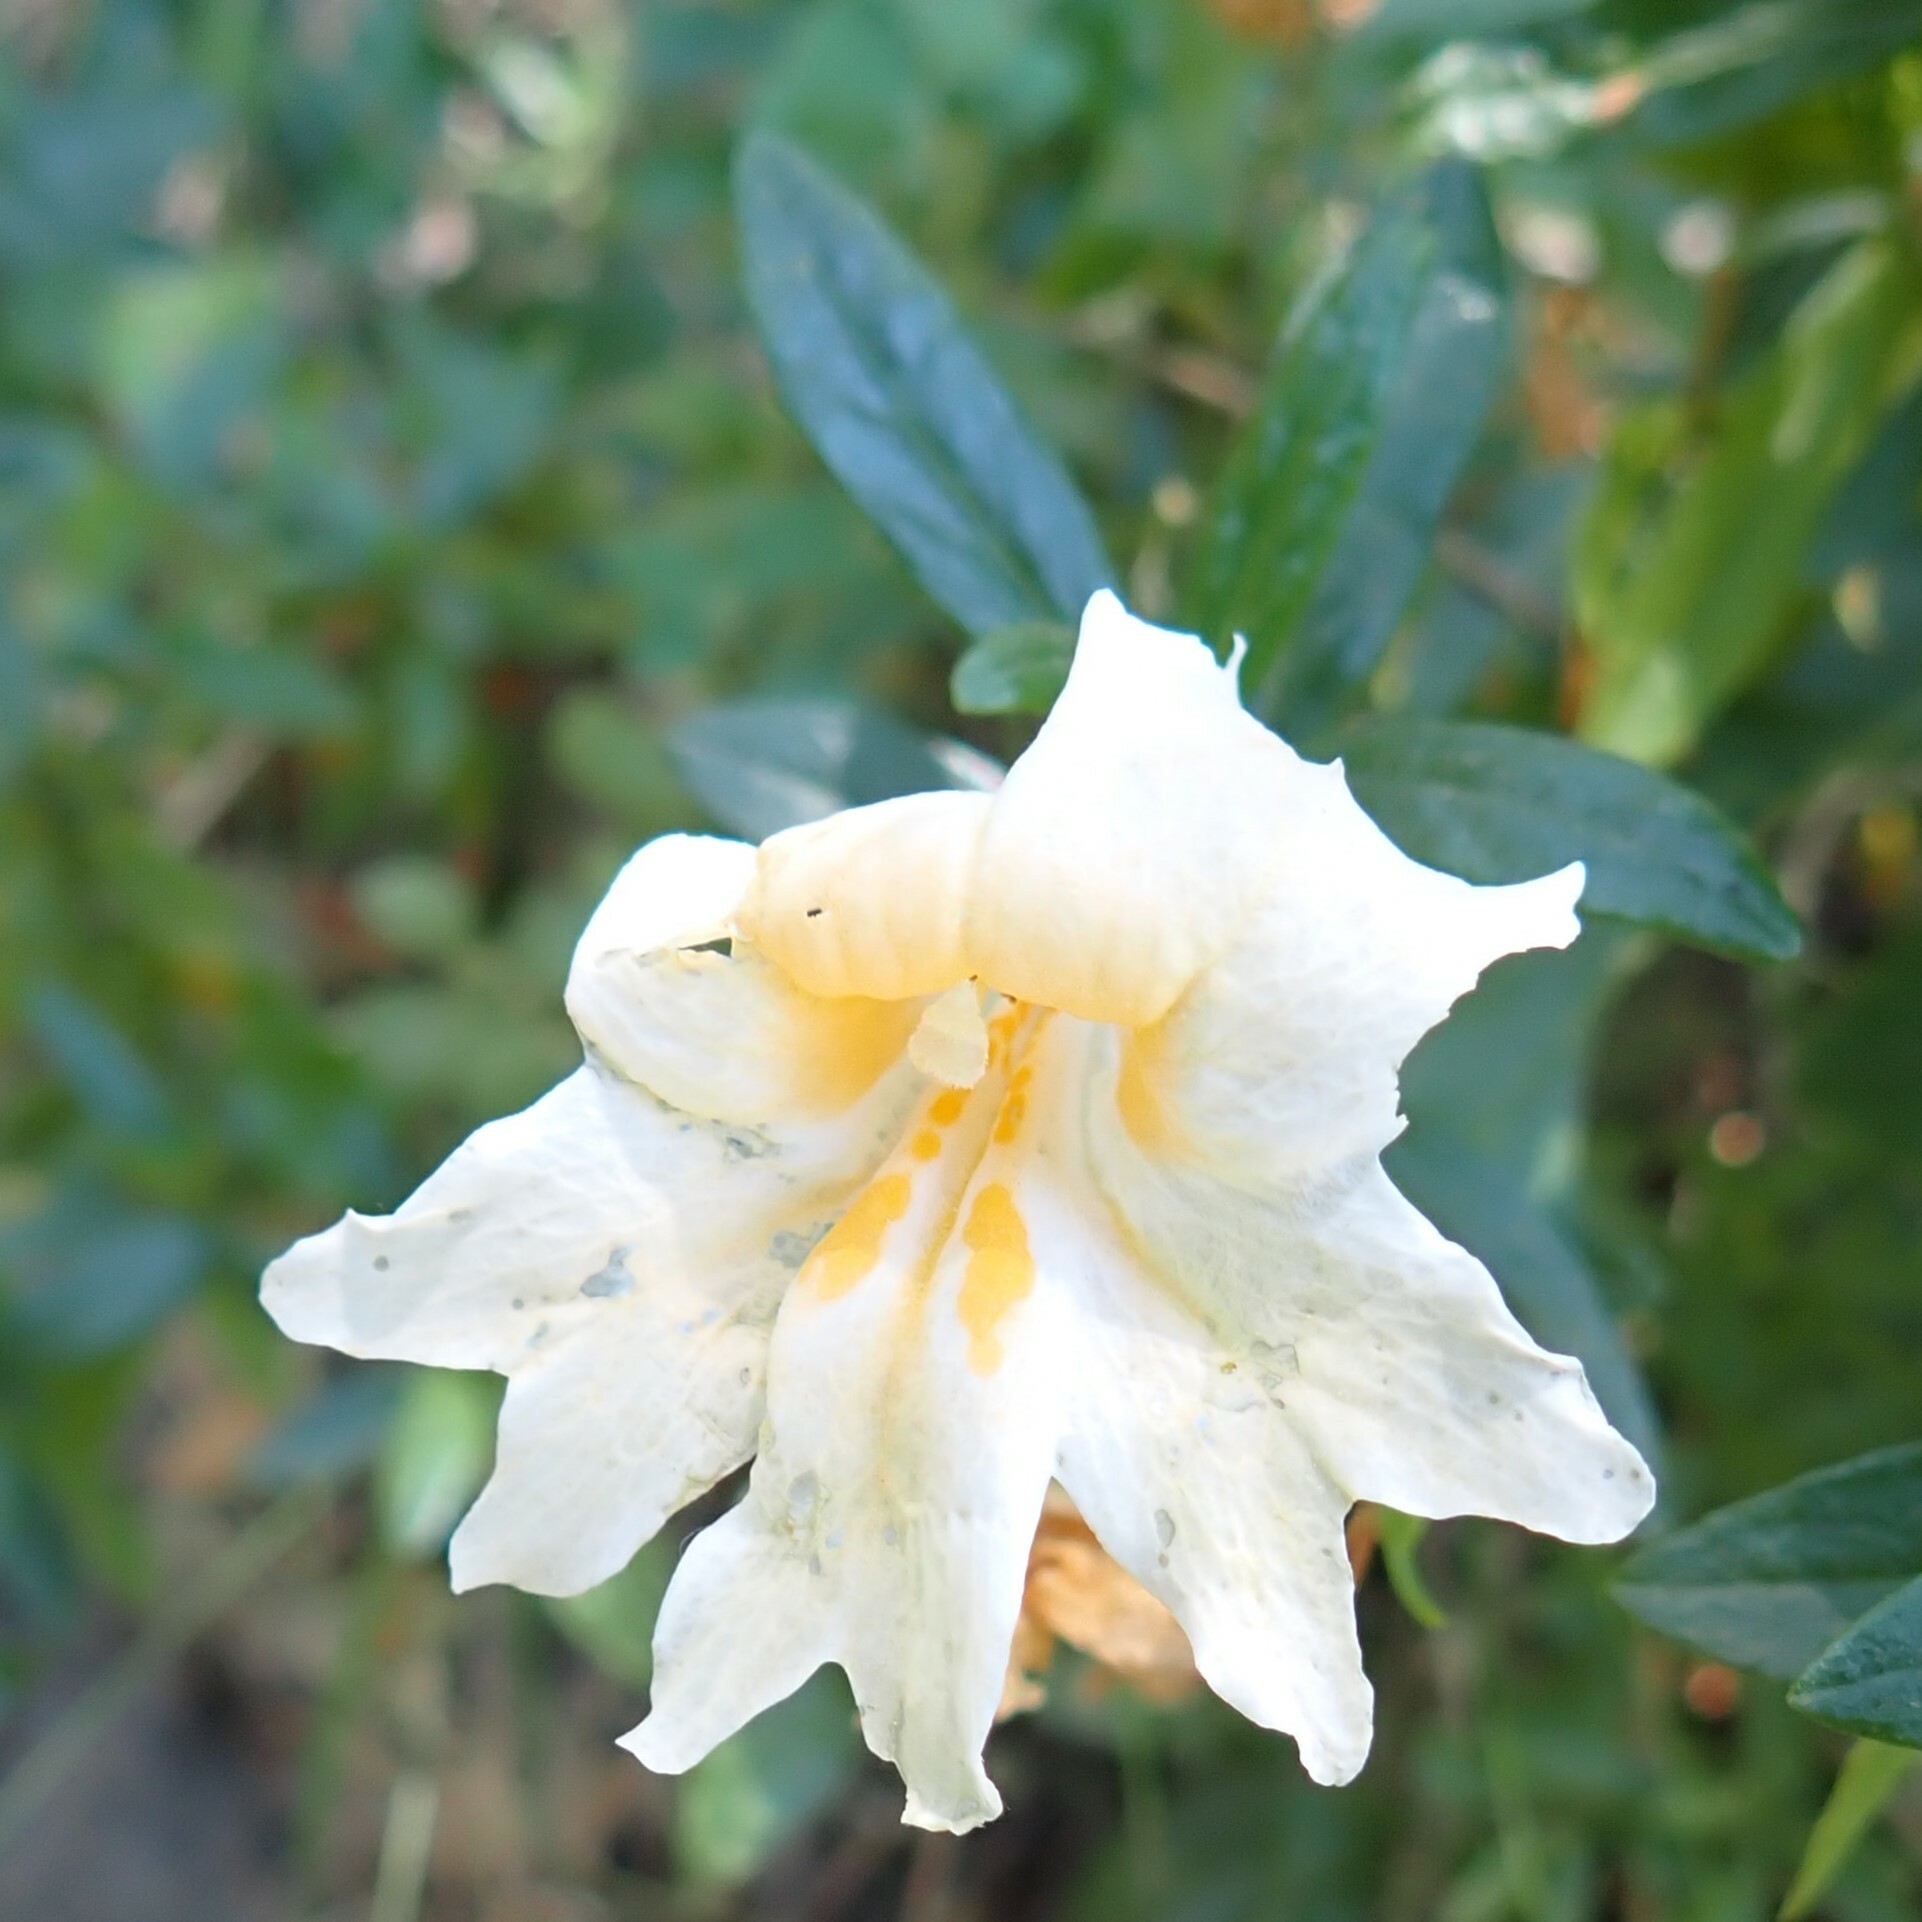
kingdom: Plantae
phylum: Tracheophyta
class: Magnoliopsida
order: Lamiales
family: Phrymaceae
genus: Diplacus
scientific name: Diplacus grandiflorus
